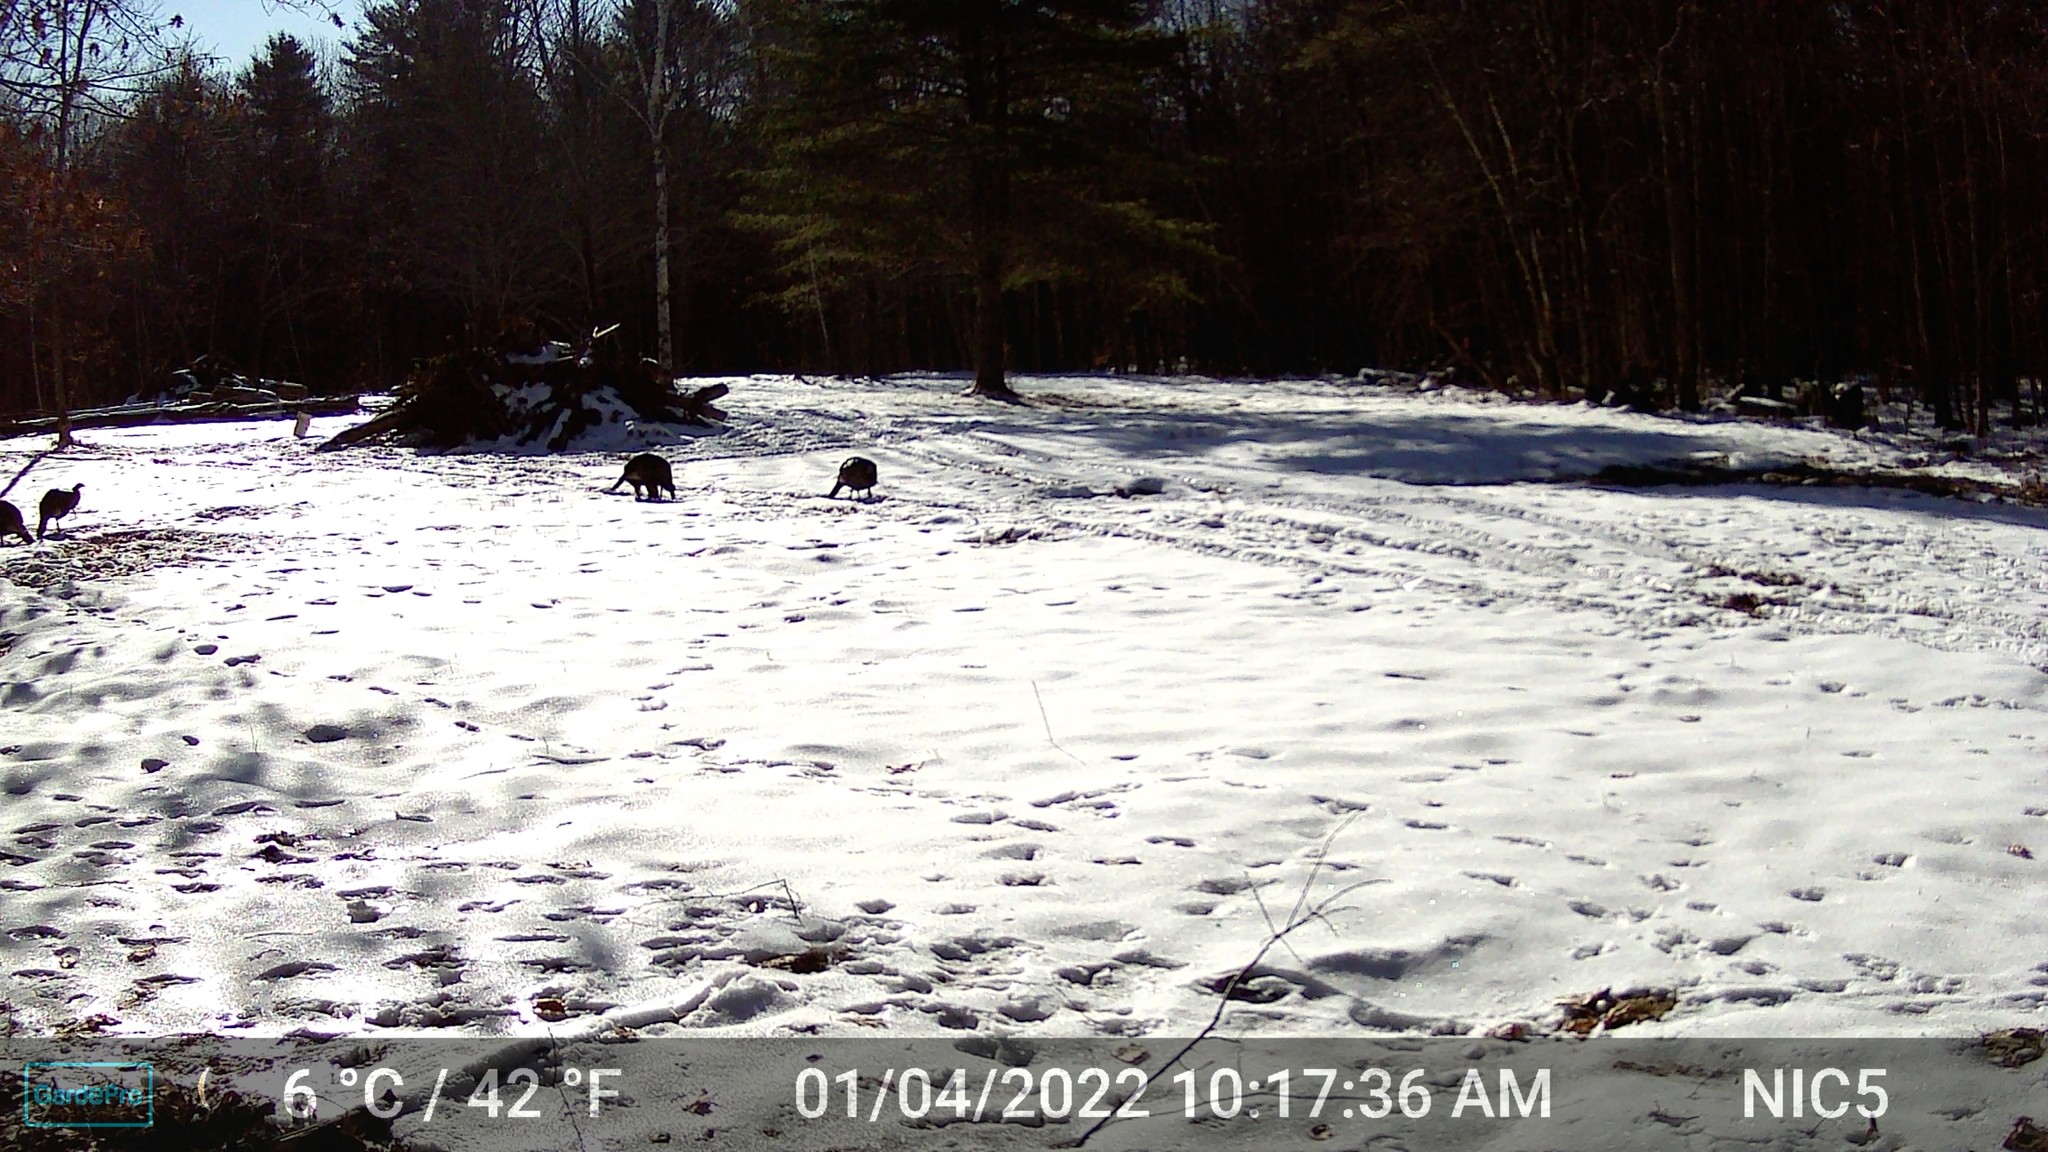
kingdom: Animalia
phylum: Chordata
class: Aves
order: Galliformes
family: Phasianidae
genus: Meleagris
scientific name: Meleagris gallopavo
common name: Wild turkey
